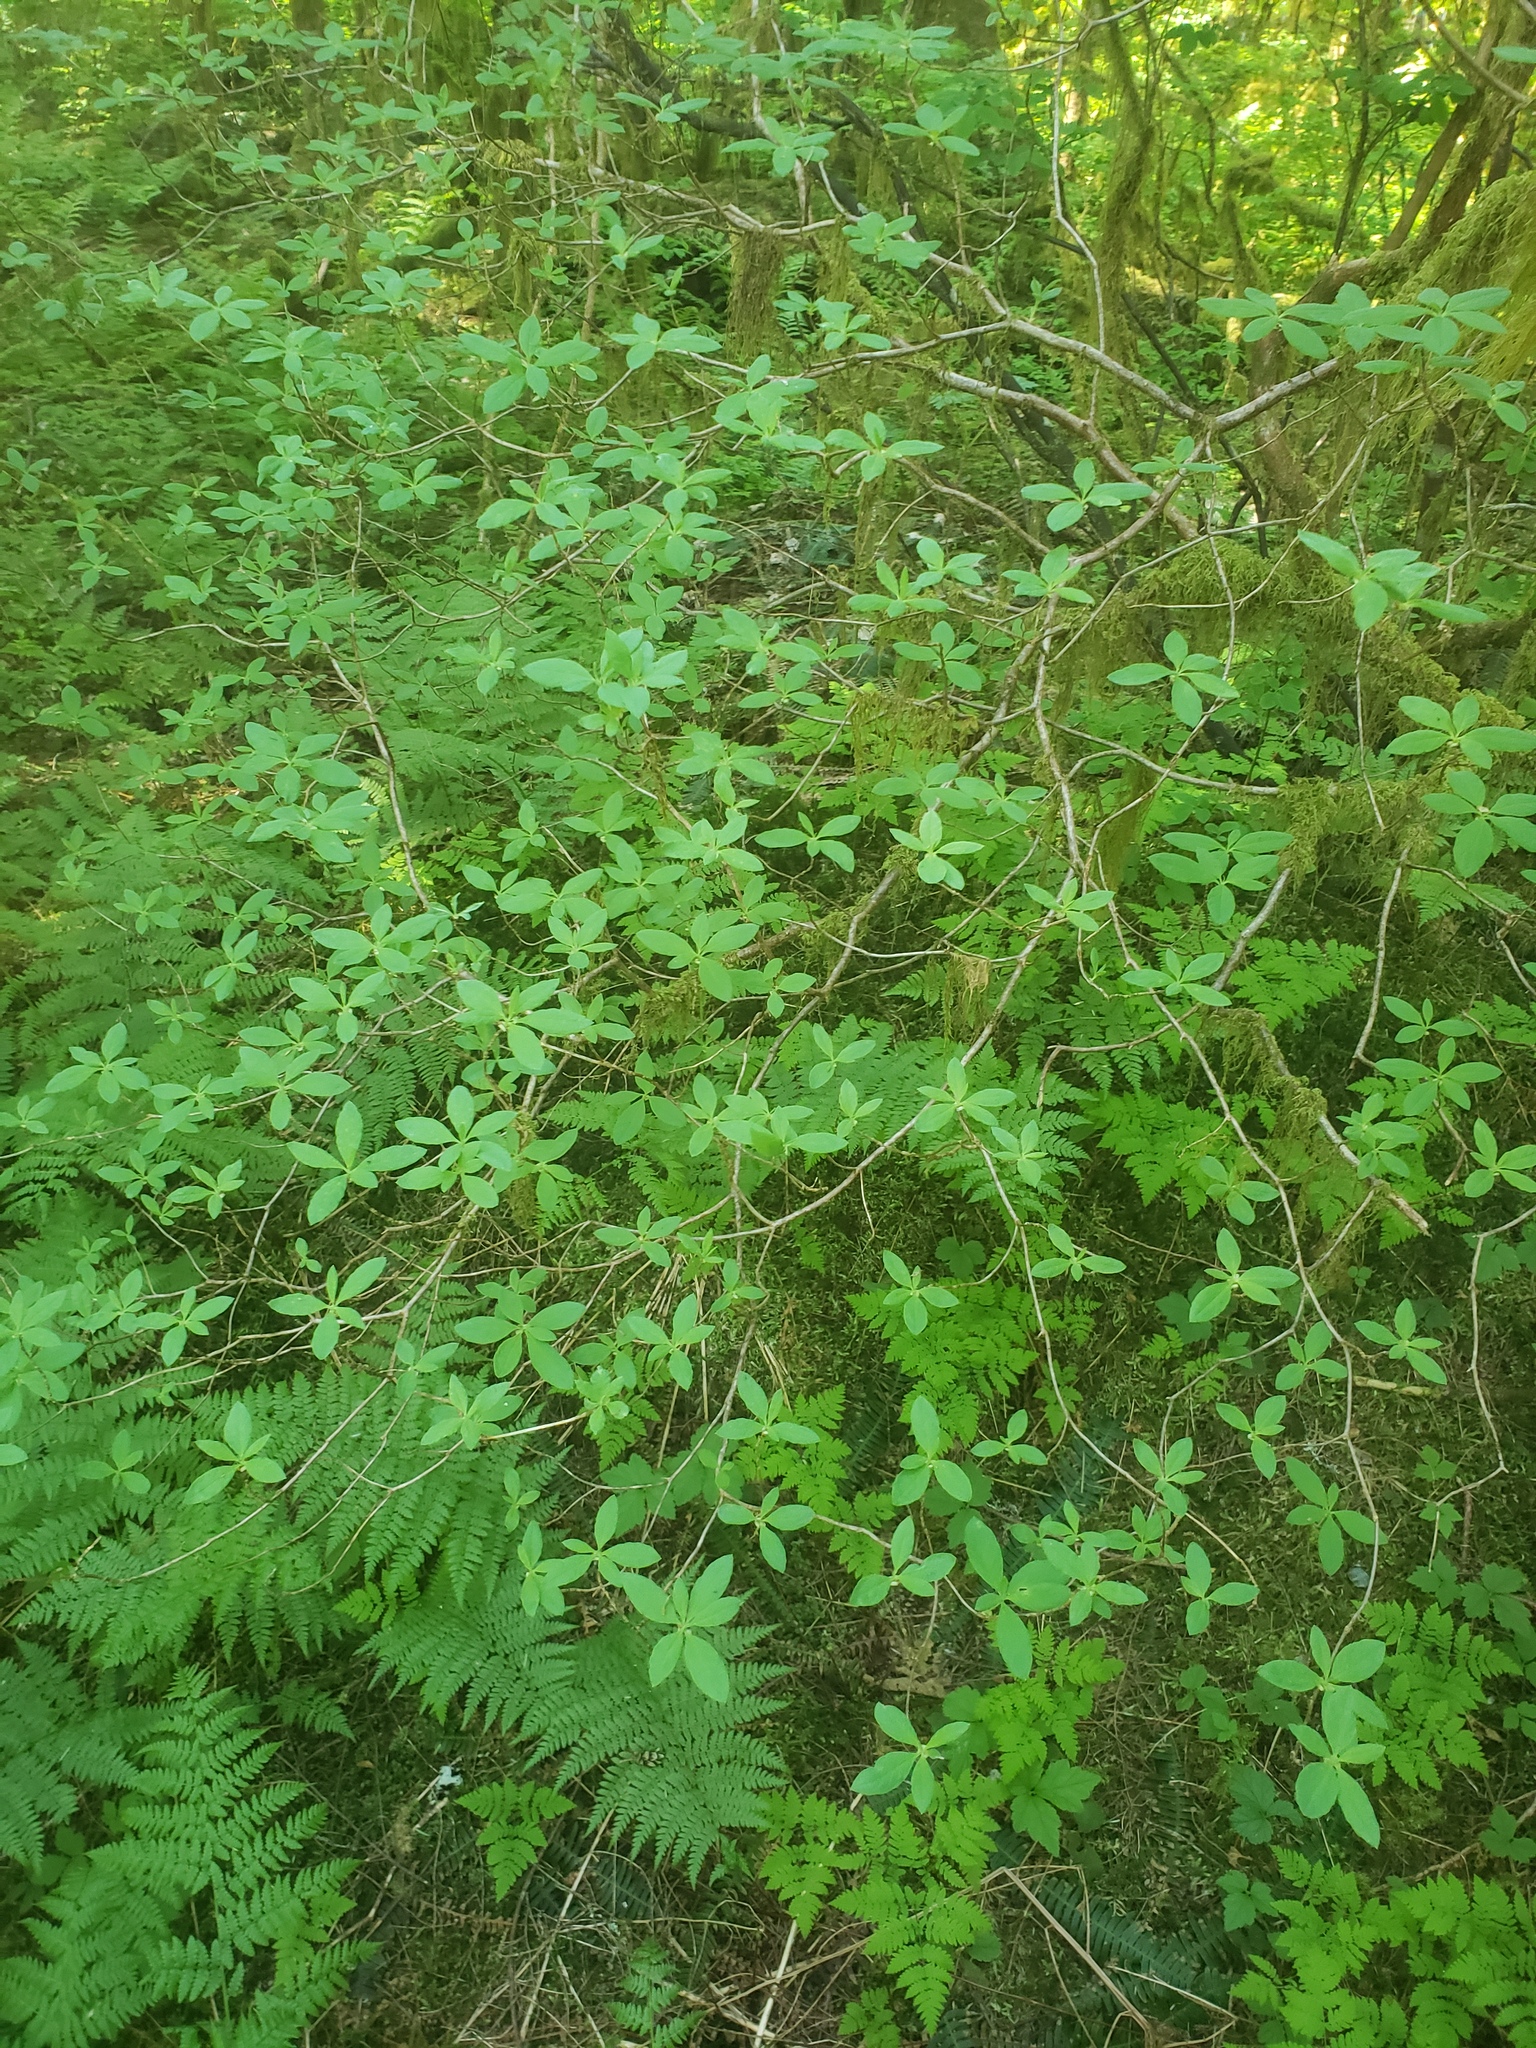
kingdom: Plantae
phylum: Tracheophyta
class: Magnoliopsida
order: Ericales
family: Ericaceae
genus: Rhododendron
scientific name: Rhododendron menziesii
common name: Pacific menziesia
